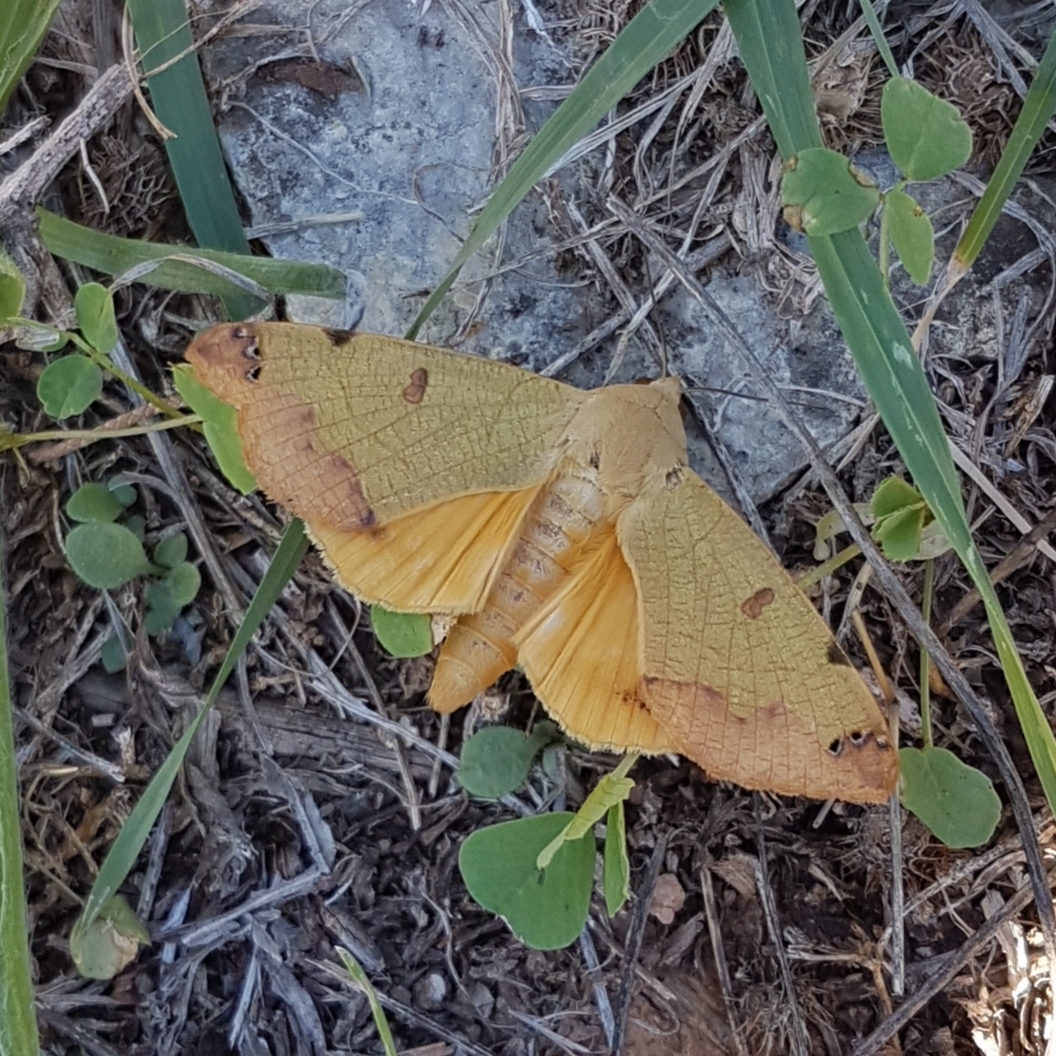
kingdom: Animalia
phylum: Arthropoda
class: Insecta
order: Lepidoptera
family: Erebidae
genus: Ophiusa
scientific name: Ophiusa tirhaca
